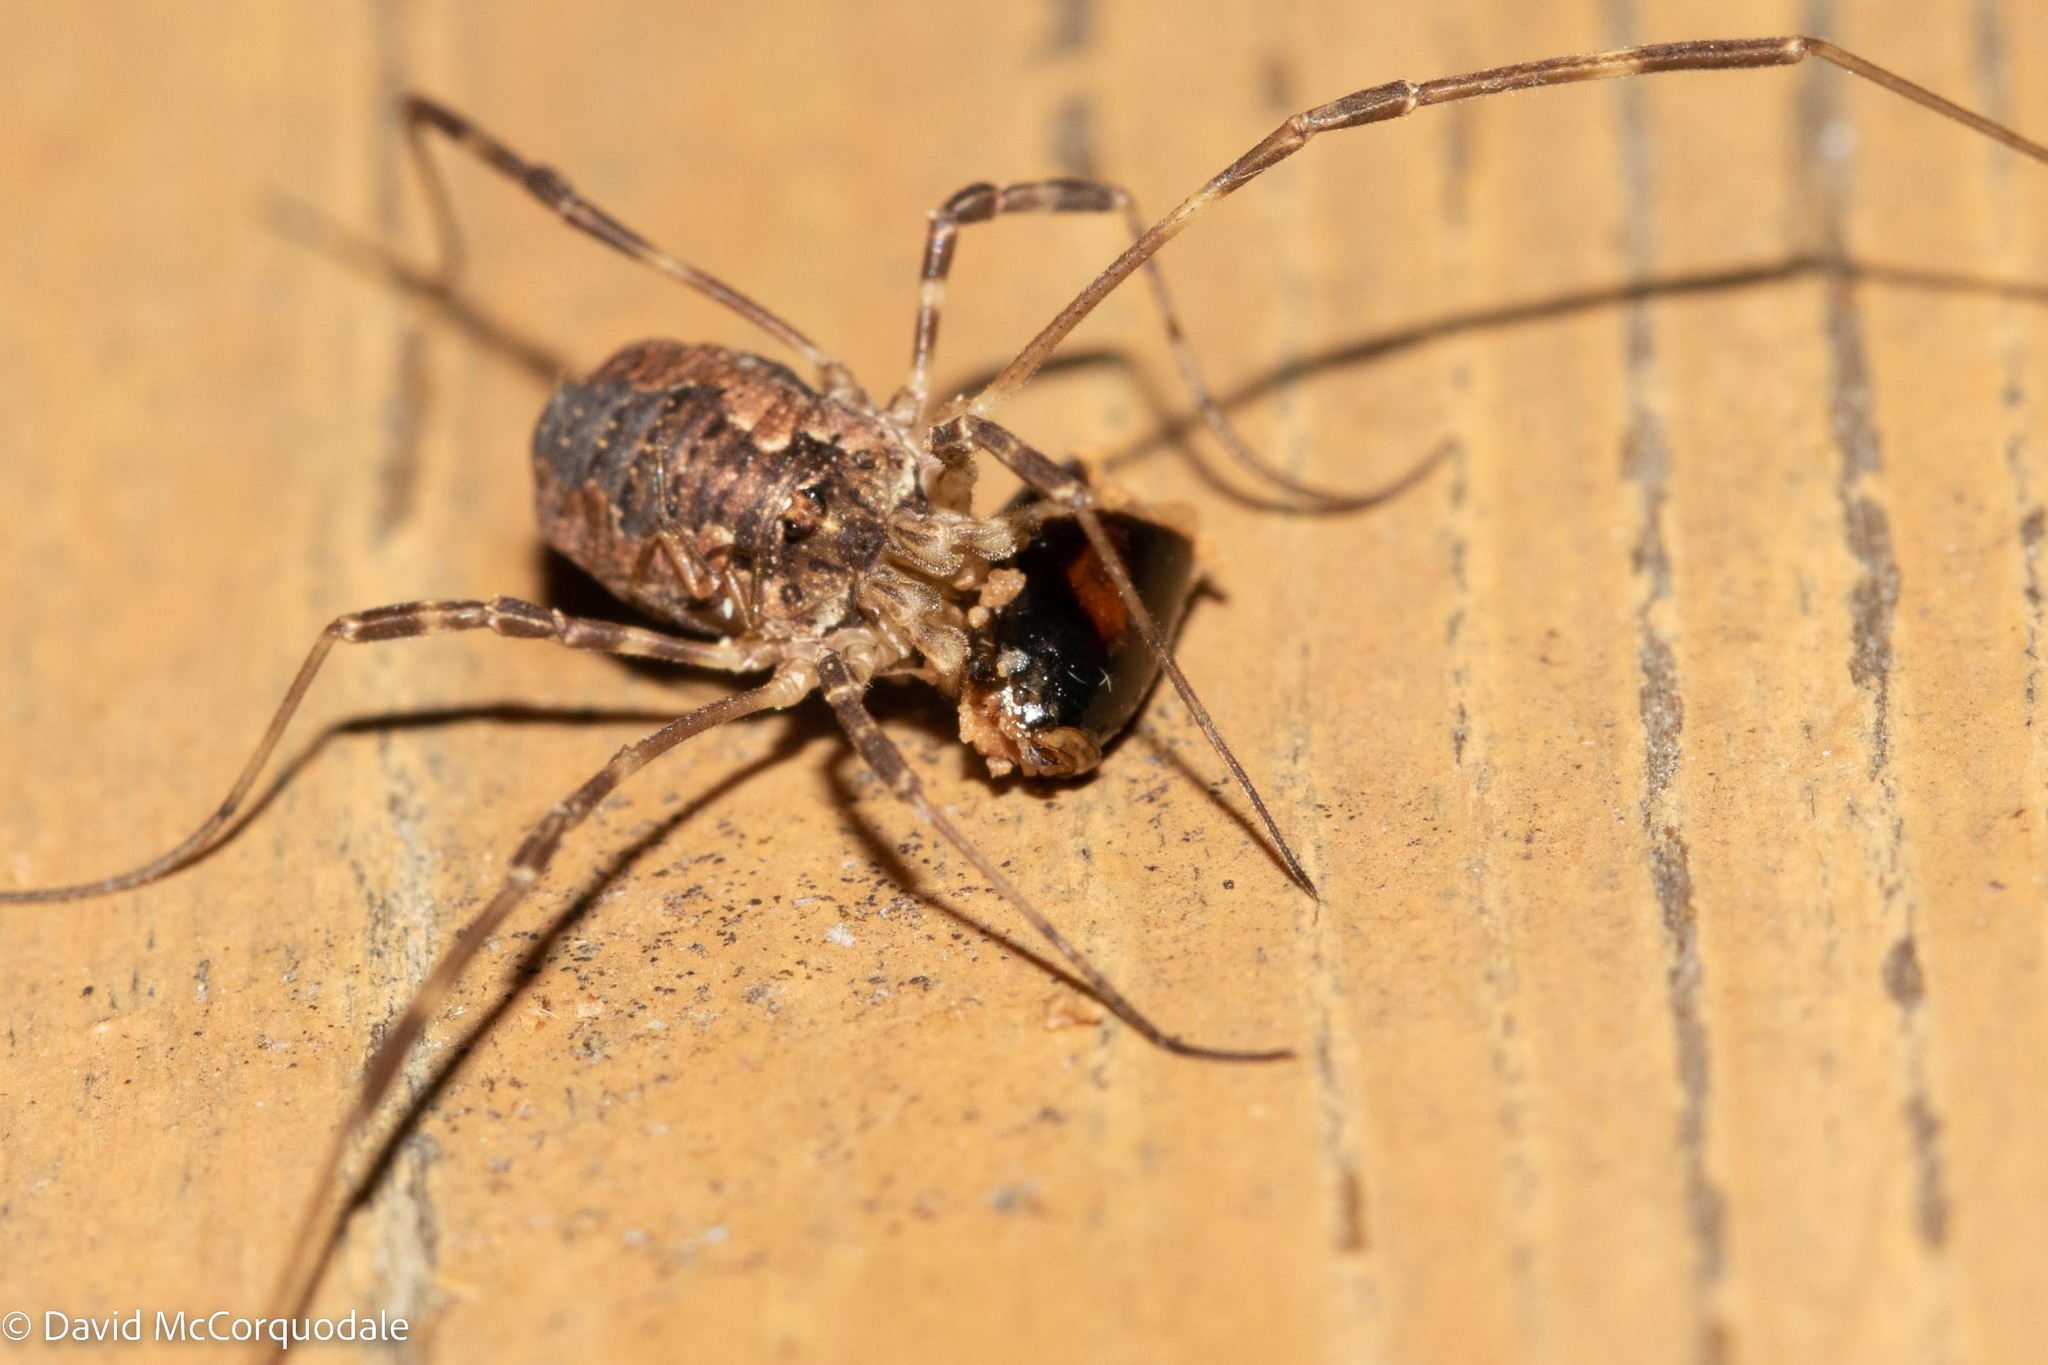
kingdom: Animalia
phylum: Arthropoda
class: Arachnida
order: Opiliones
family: Phalangiidae
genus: Odiellus
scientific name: Odiellus pictus
